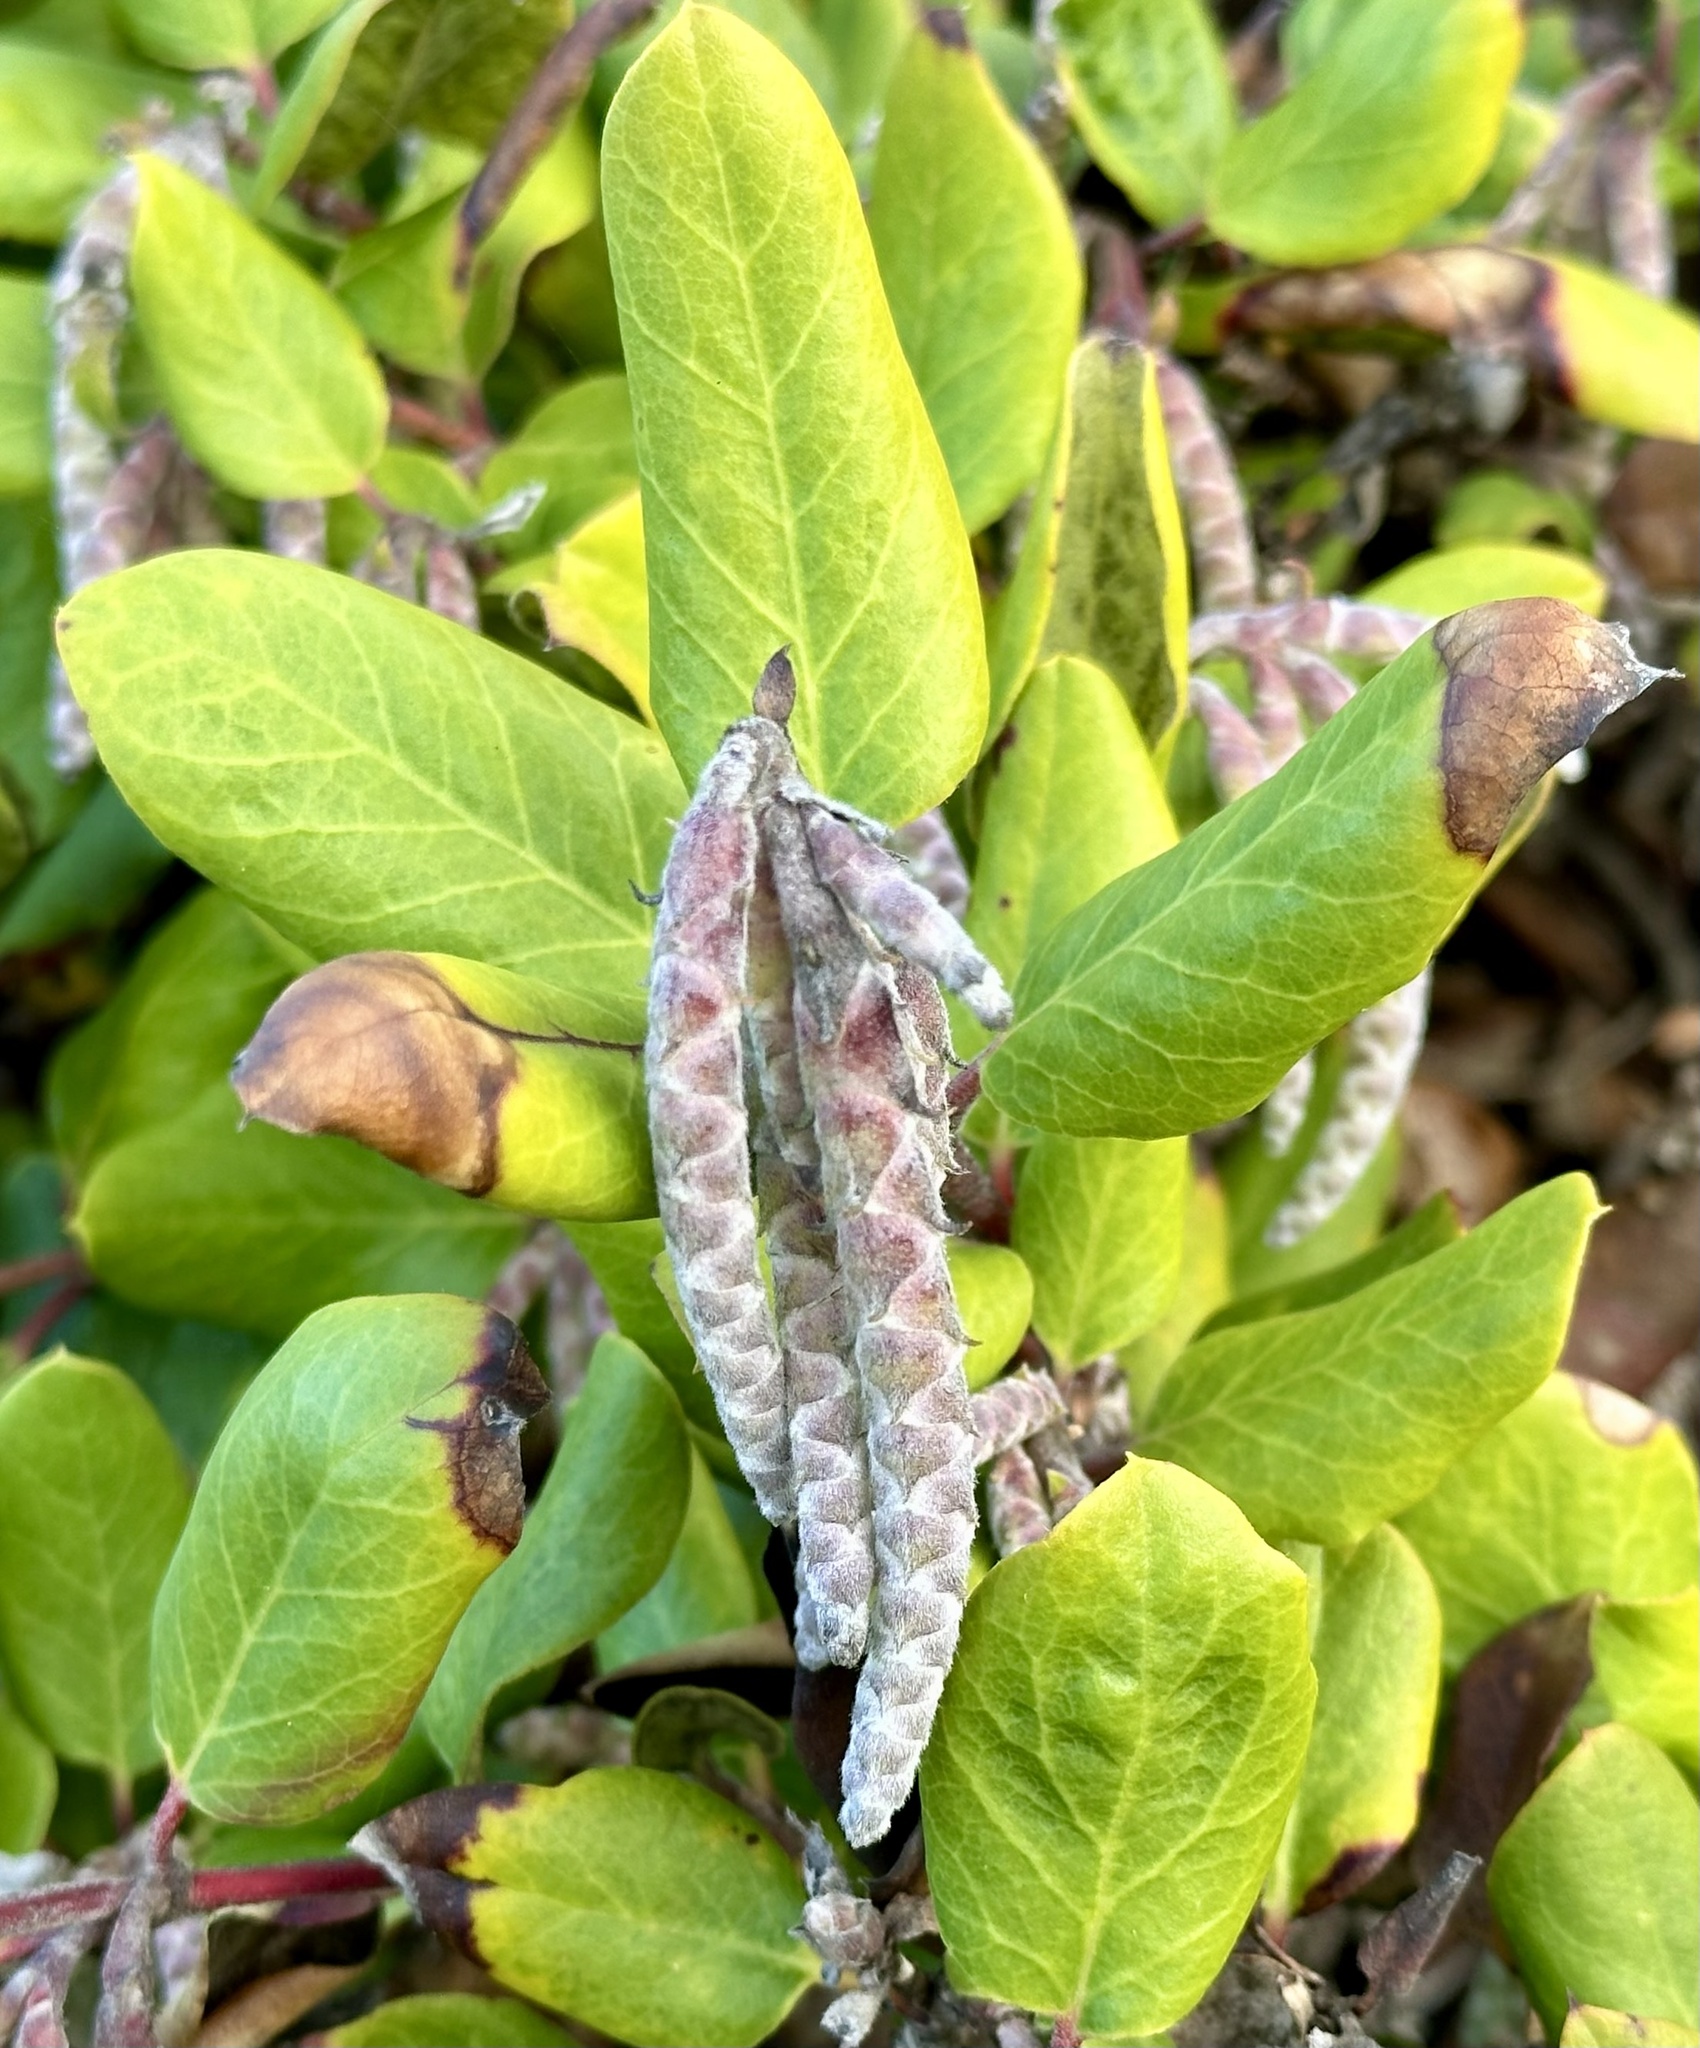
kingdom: Plantae
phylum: Tracheophyta
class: Magnoliopsida
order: Garryales
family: Garryaceae
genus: Garrya
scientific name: Garrya elliptica
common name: Silk-tassel
